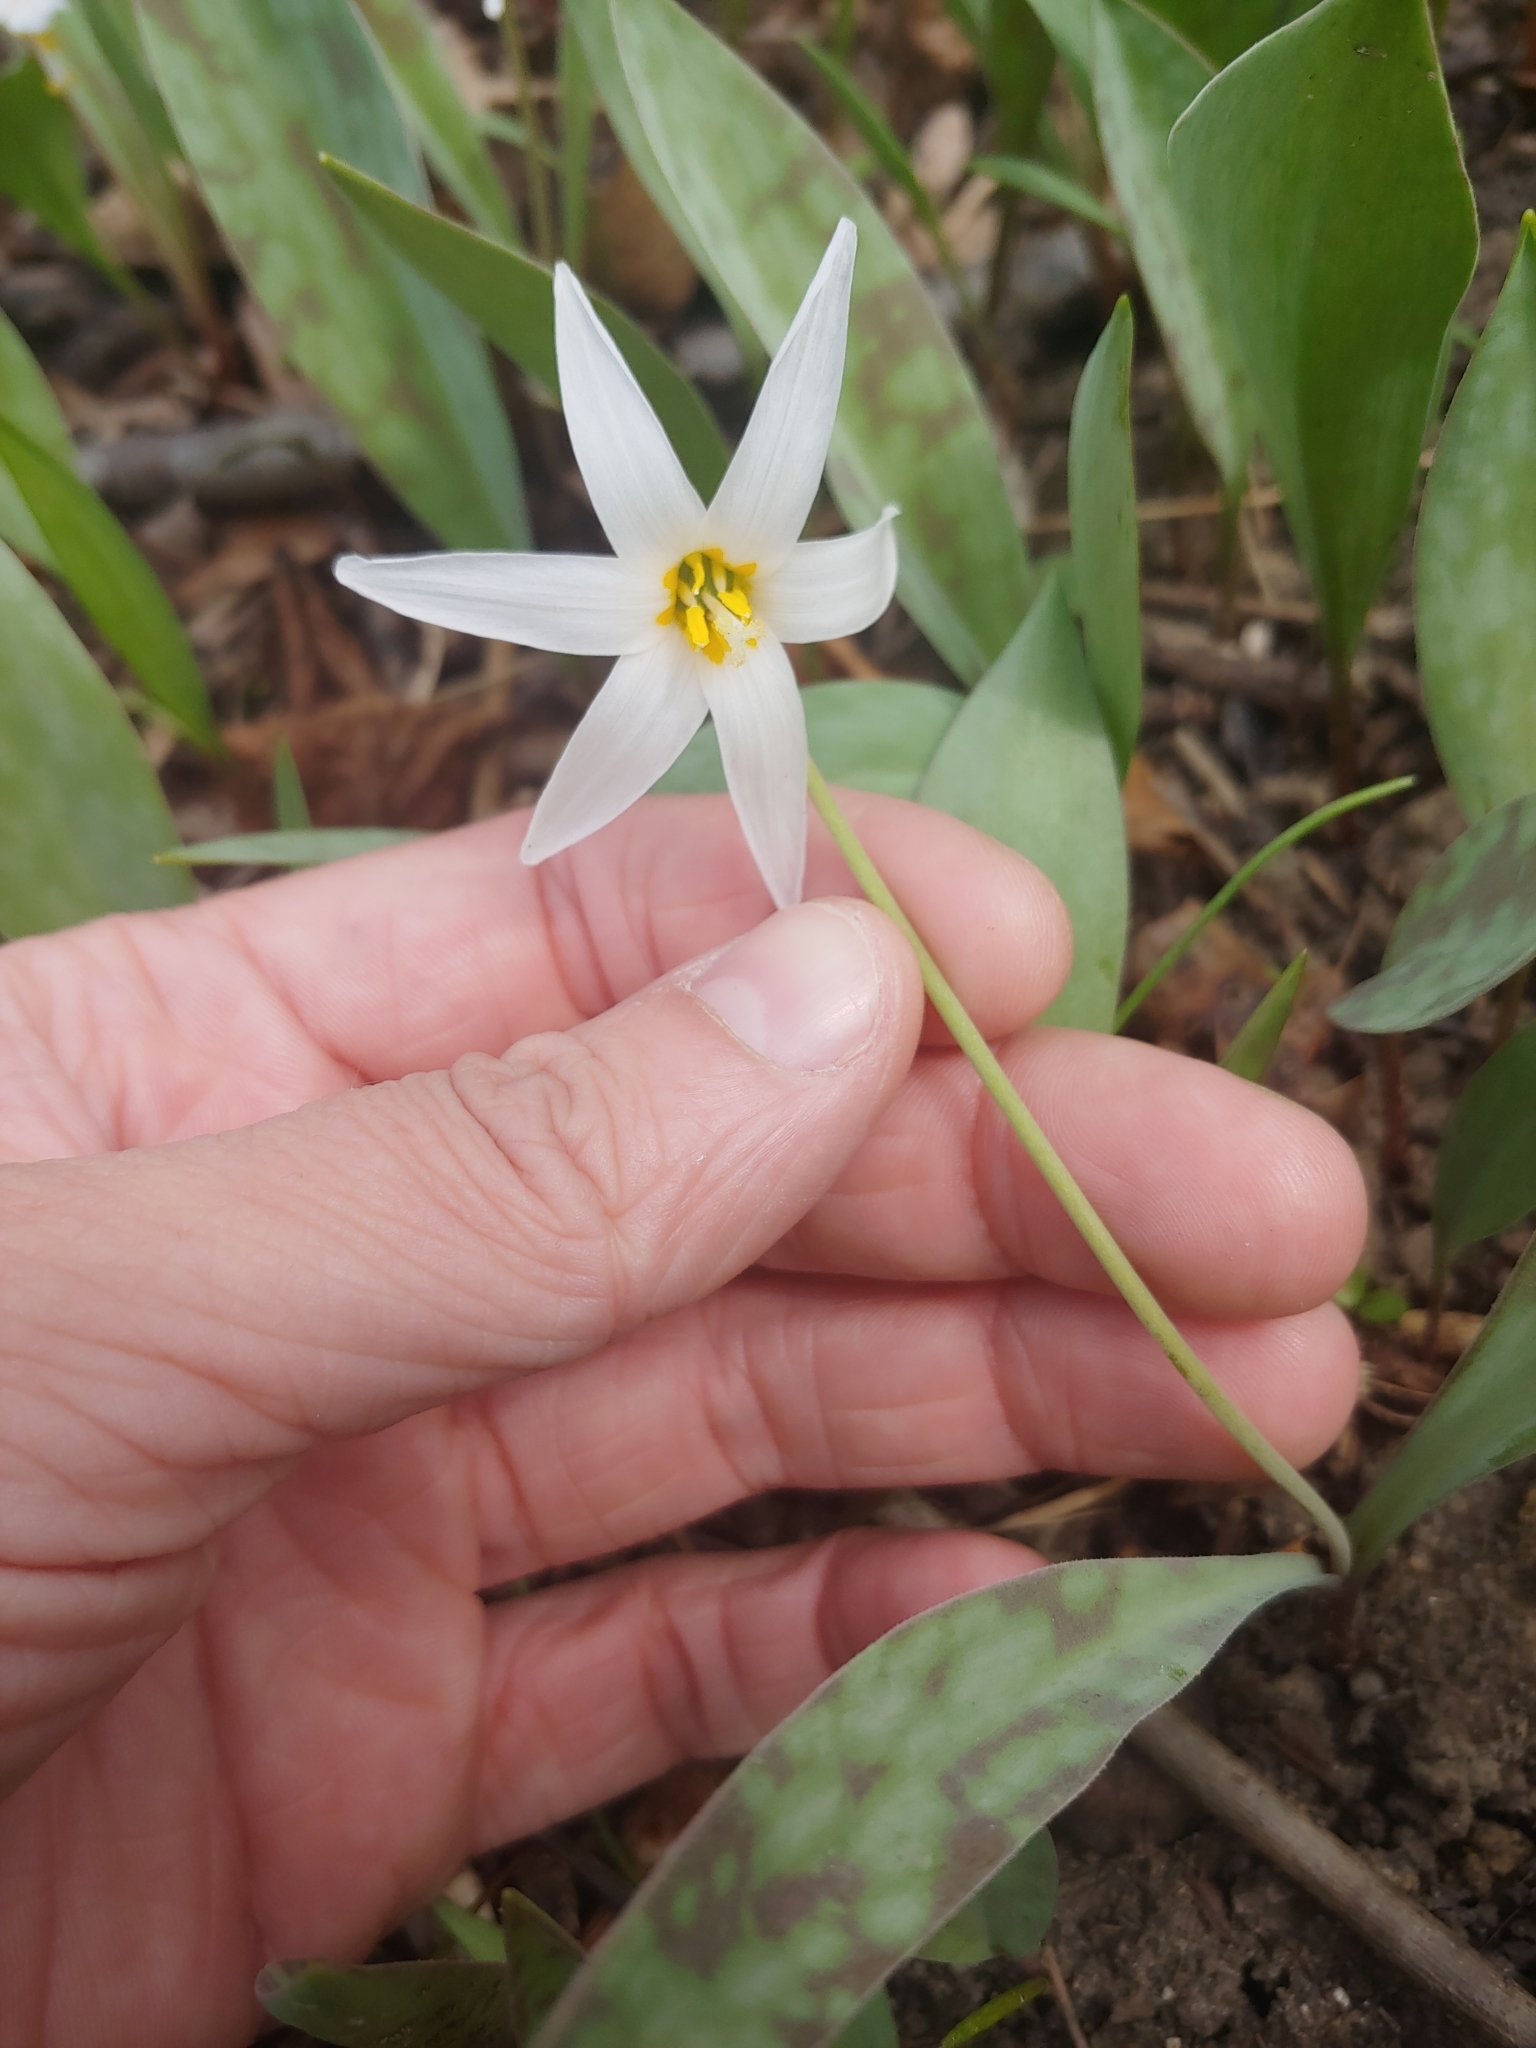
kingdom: Plantae
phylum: Tracheophyta
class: Liliopsida
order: Liliales
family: Liliaceae
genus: Erythronium
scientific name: Erythronium albidum
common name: White trout-lily
